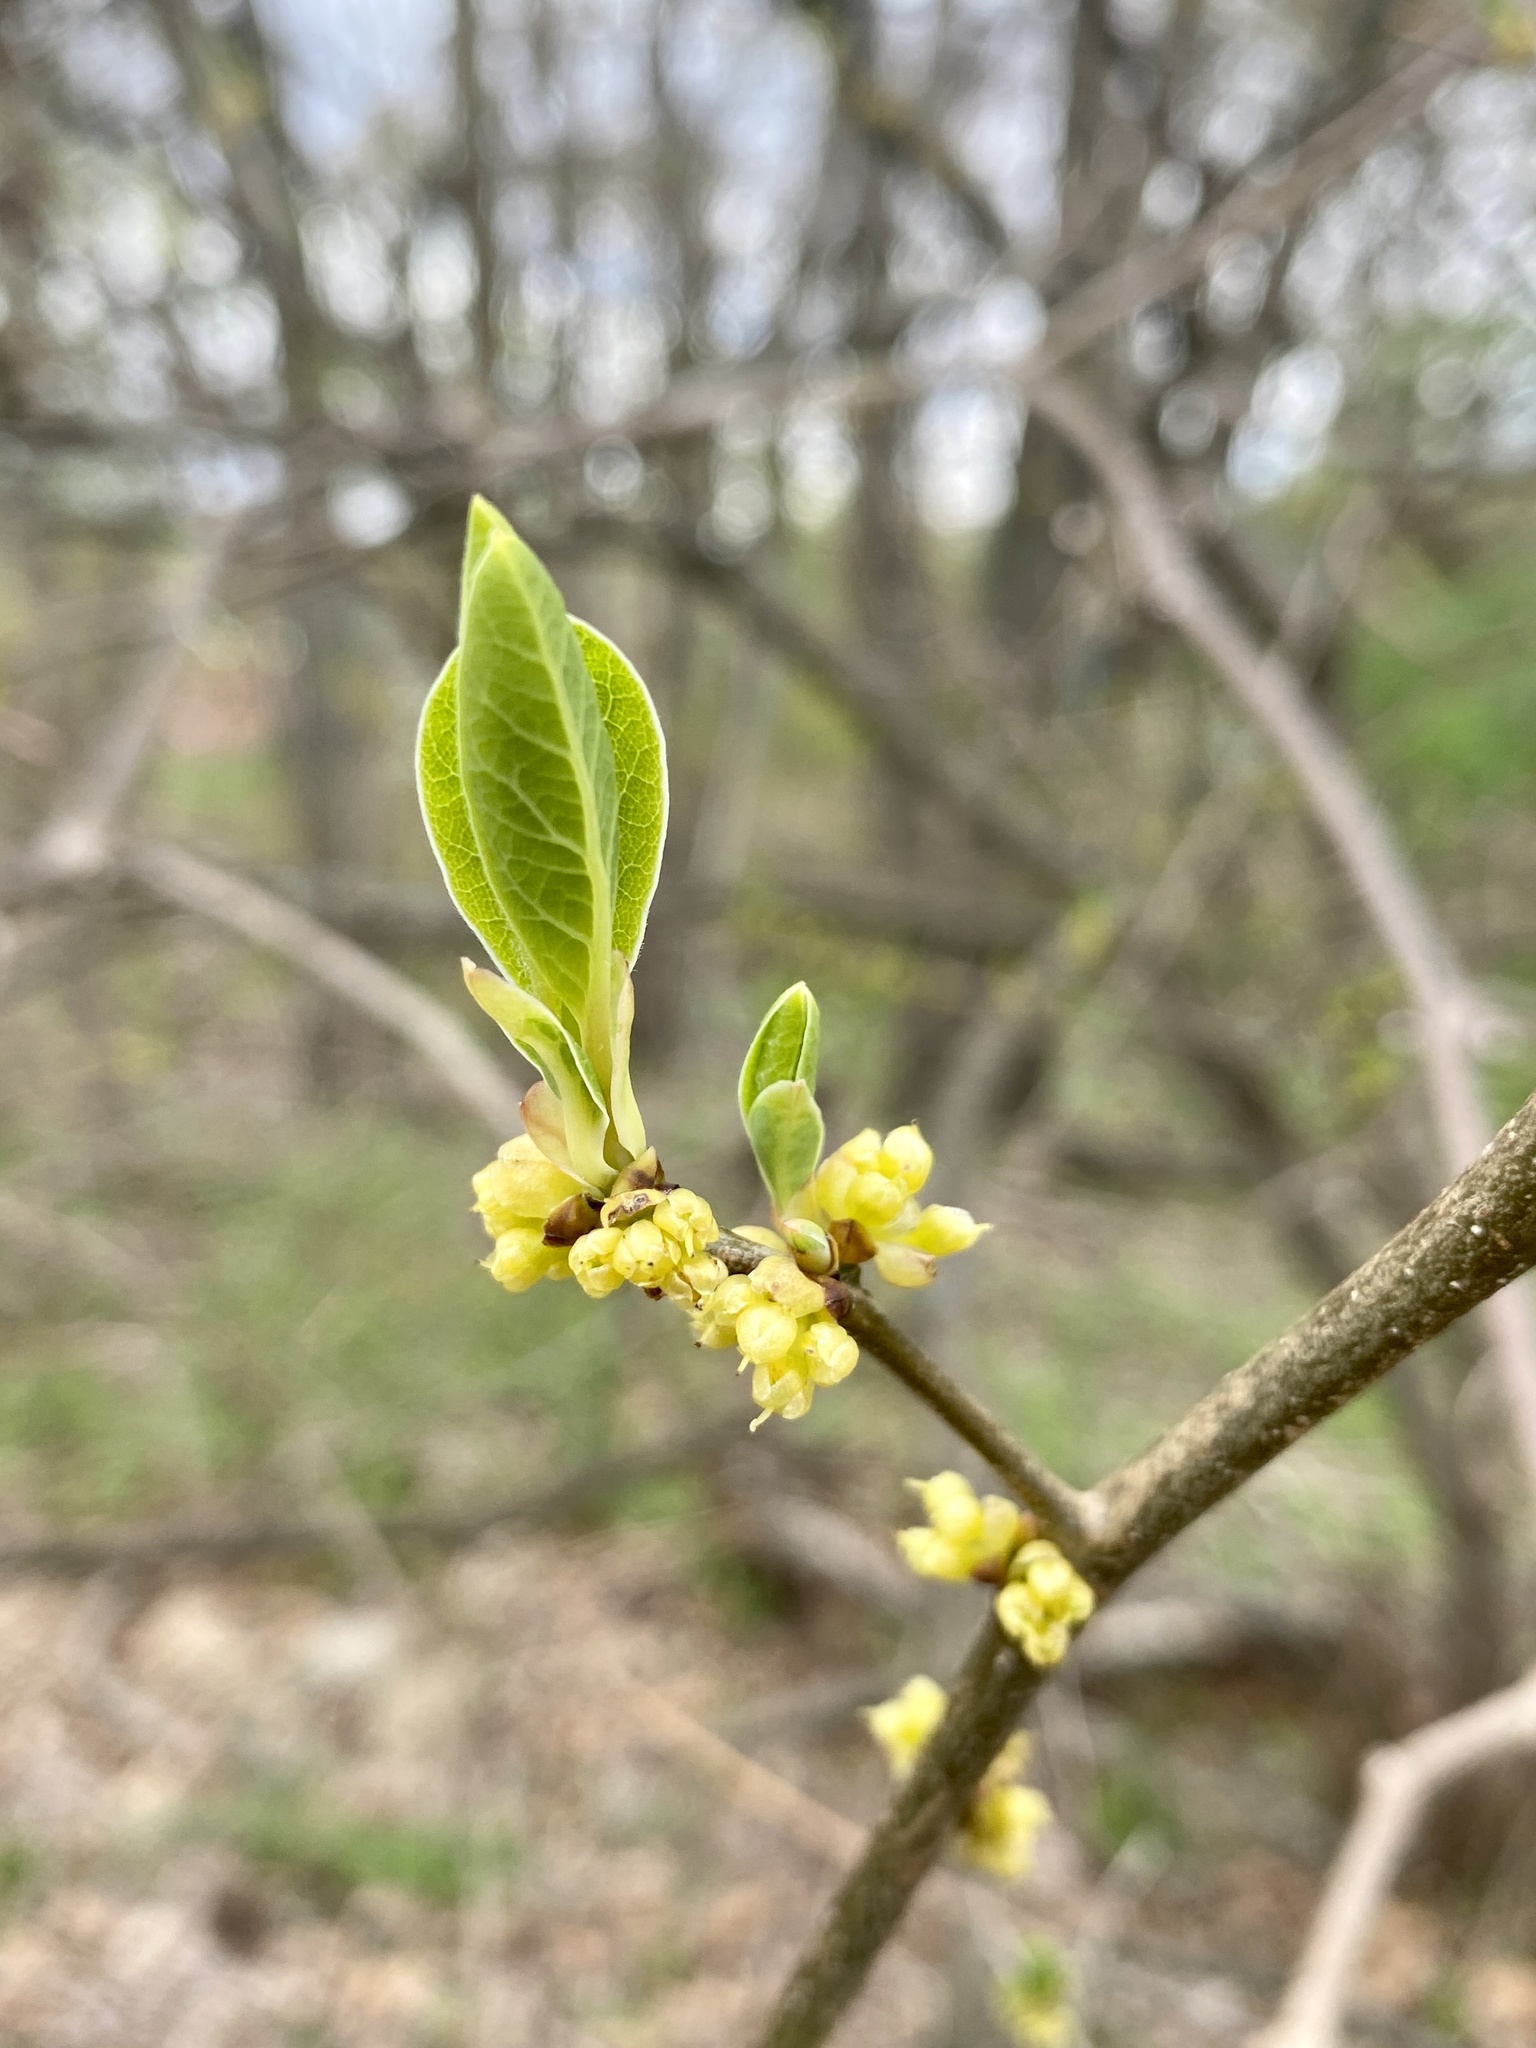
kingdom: Plantae
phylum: Tracheophyta
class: Magnoliopsida
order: Laurales
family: Lauraceae
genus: Lindera
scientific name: Lindera benzoin
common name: Spicebush
